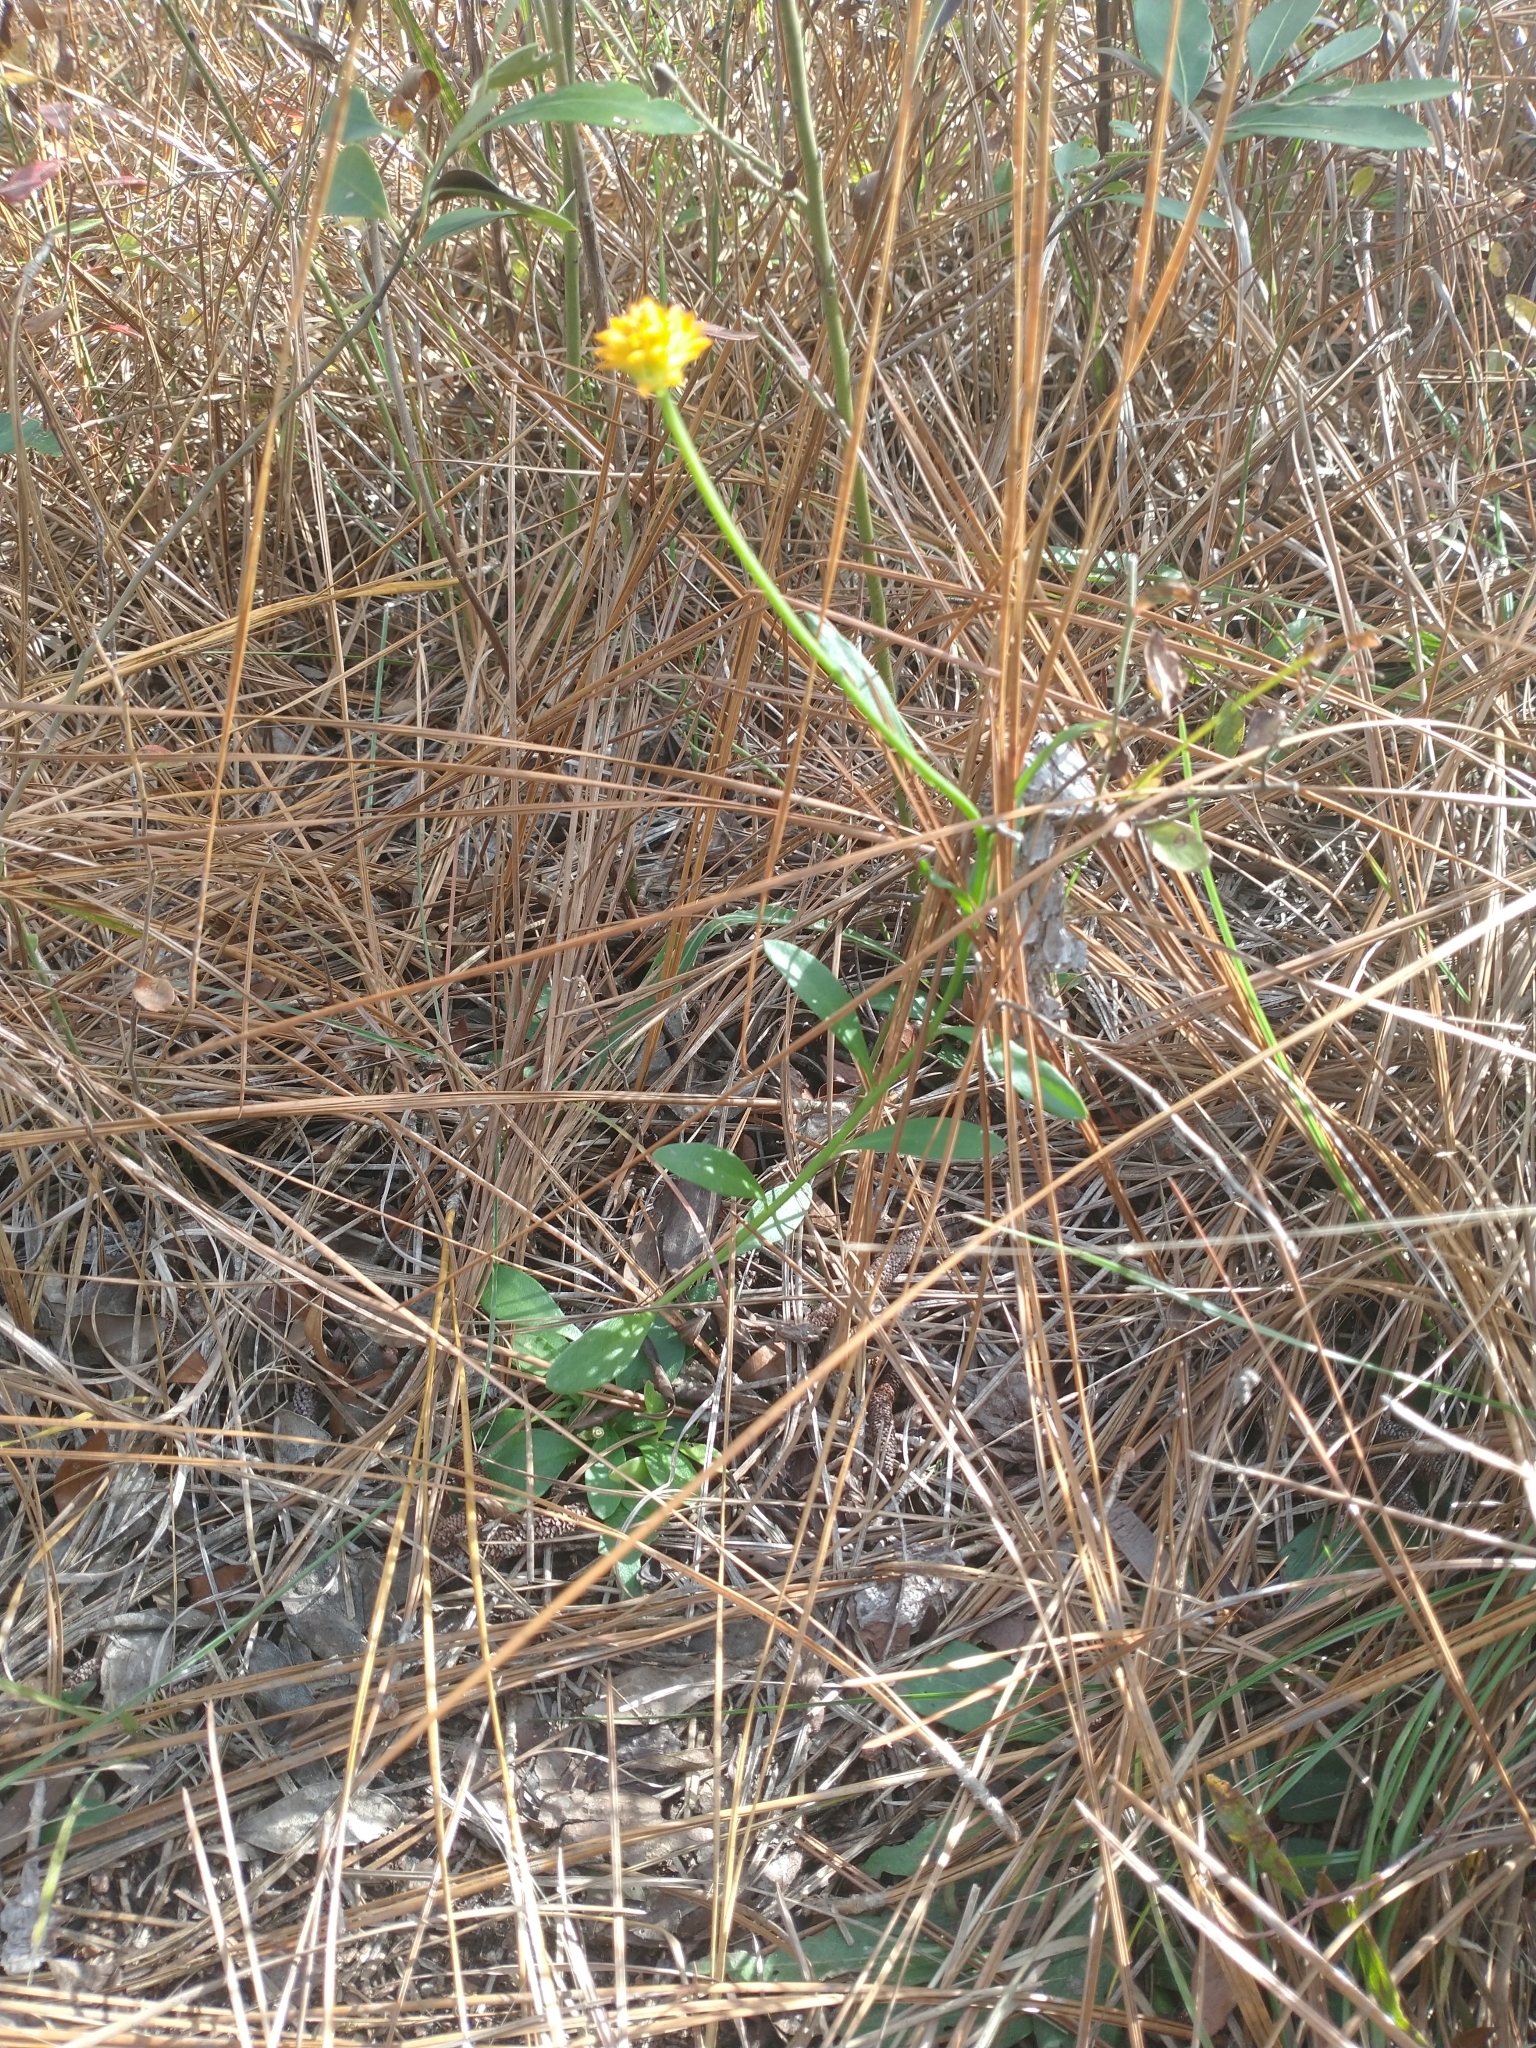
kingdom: Plantae
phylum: Tracheophyta
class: Magnoliopsida
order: Fabales
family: Polygalaceae
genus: Polygala
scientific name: Polygala lutea
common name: Orange milkwort
